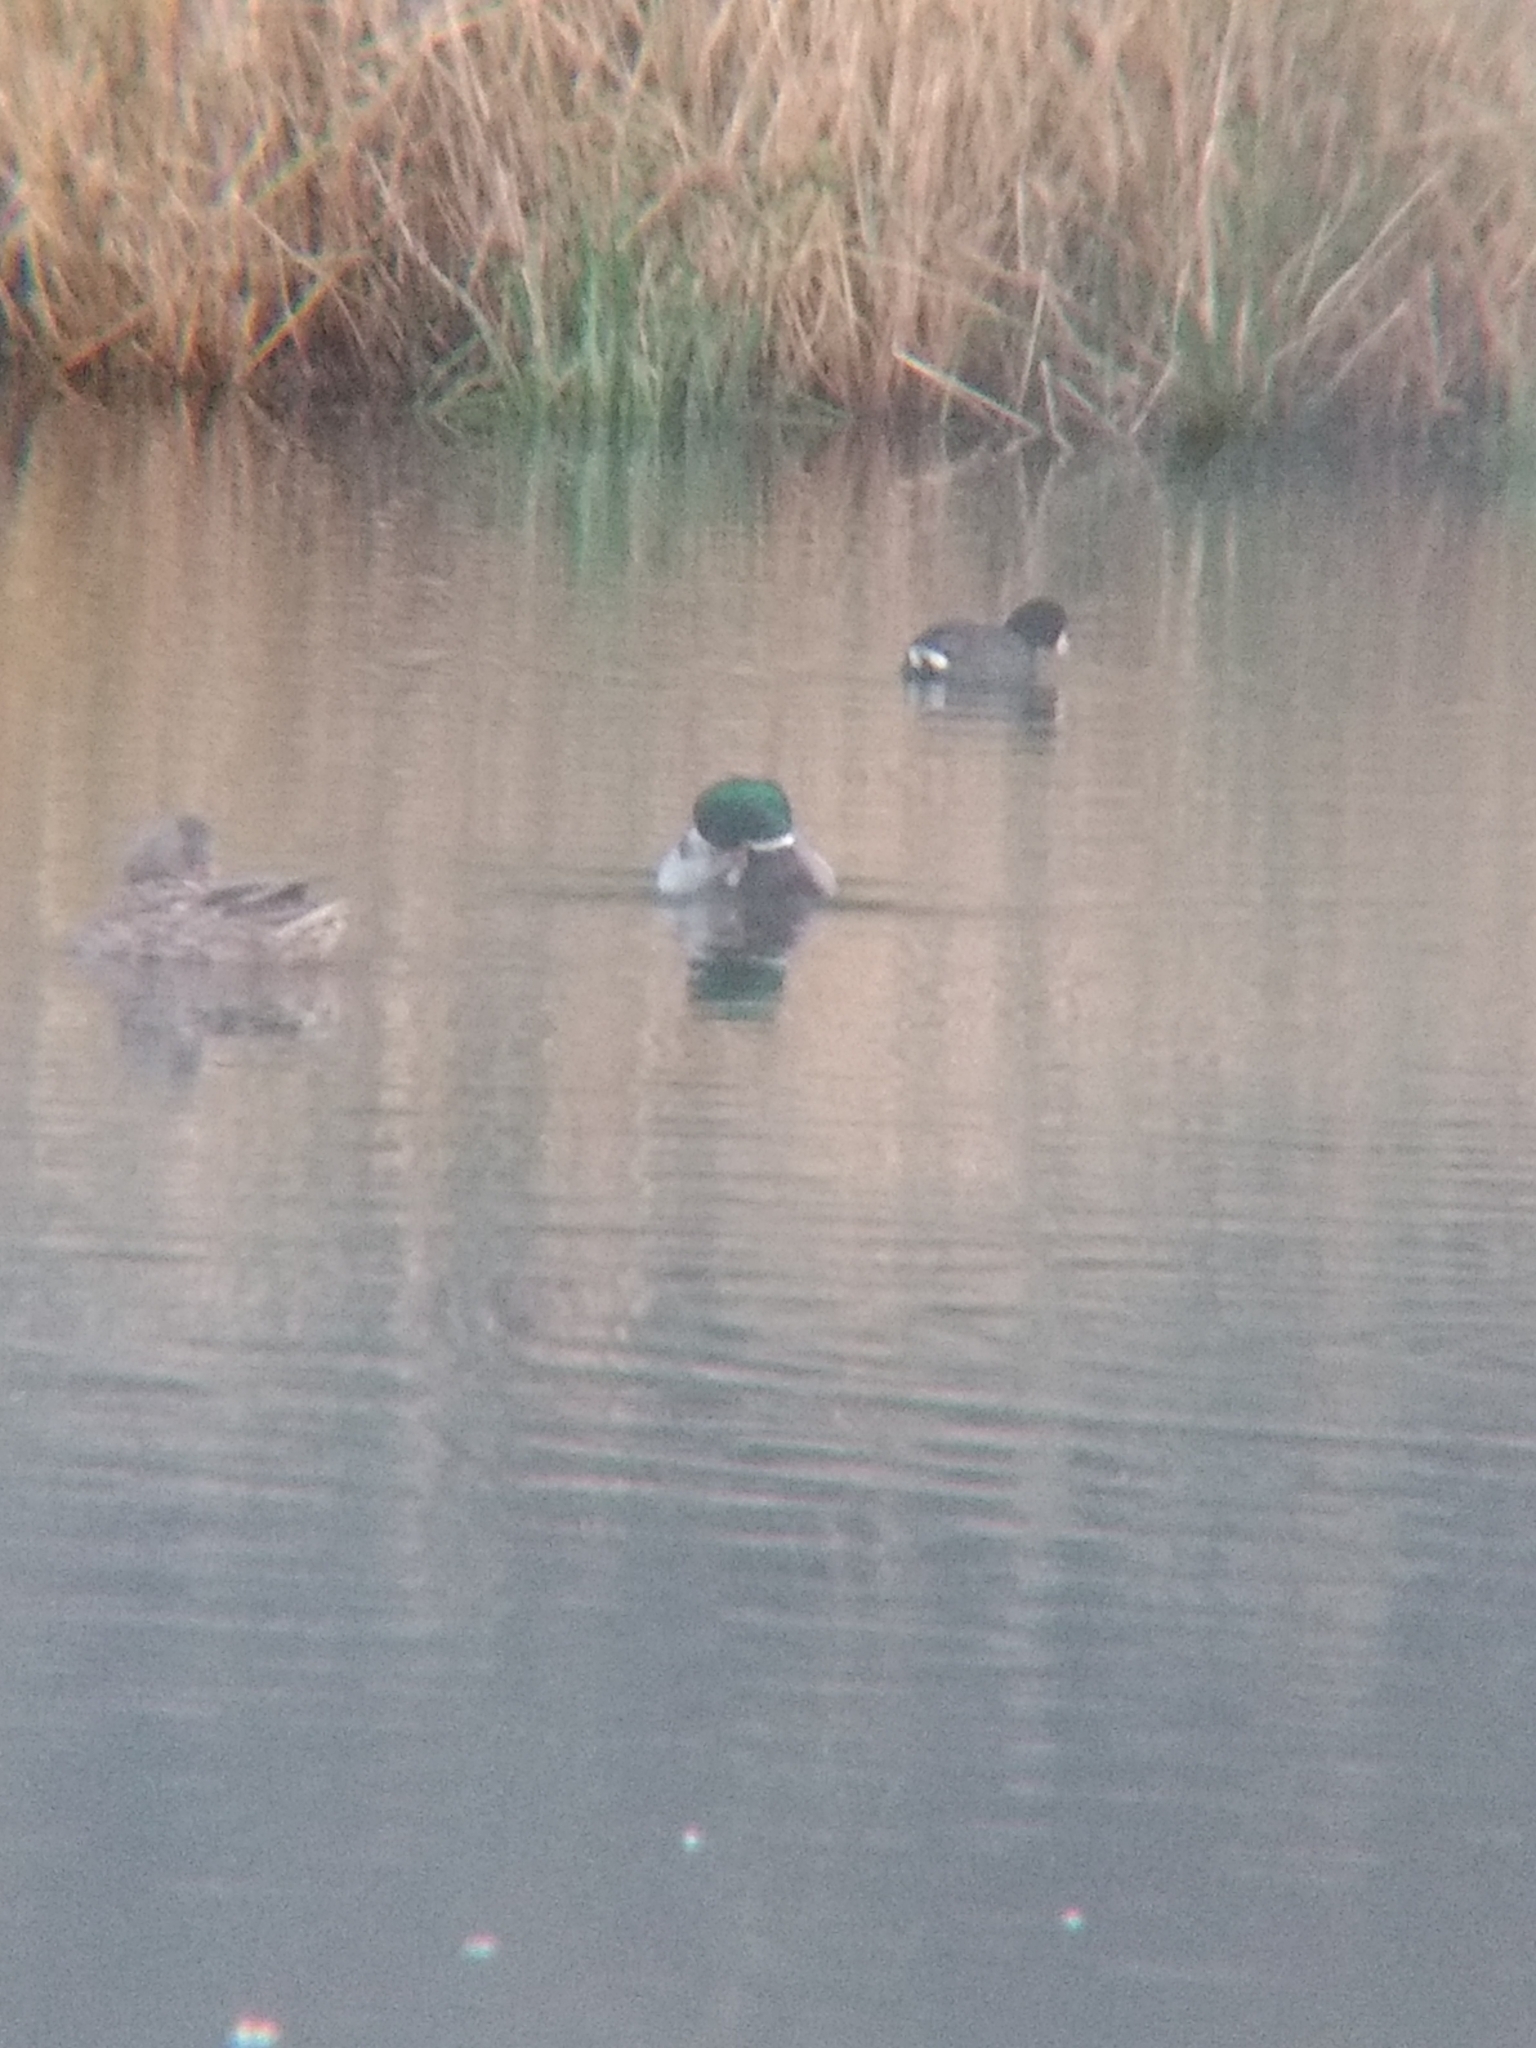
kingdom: Animalia
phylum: Chordata
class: Aves
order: Anseriformes
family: Anatidae
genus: Anas
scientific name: Anas platyrhynchos
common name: Mallard
